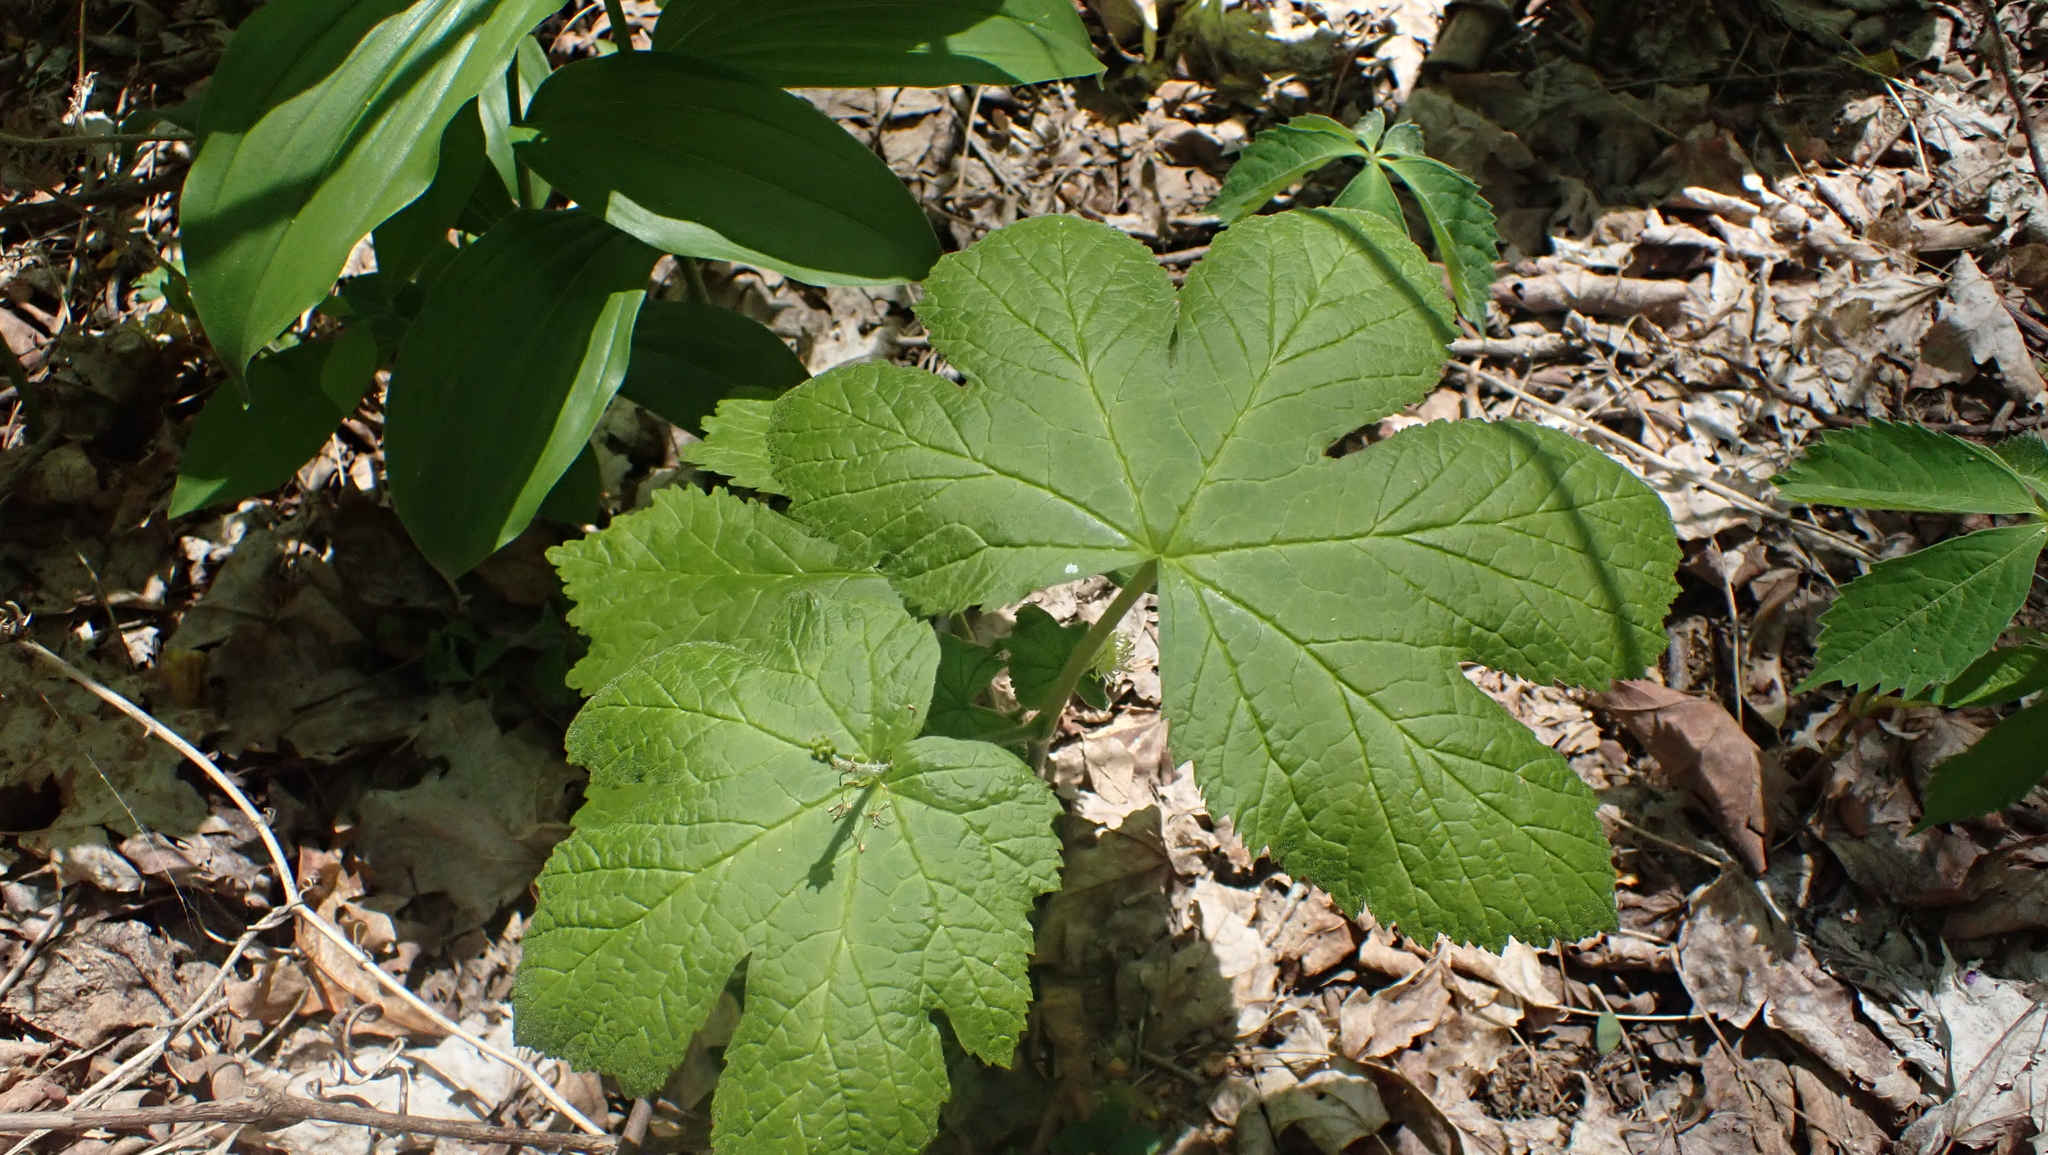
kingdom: Plantae
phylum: Tracheophyta
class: Magnoliopsida
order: Ranunculales
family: Ranunculaceae
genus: Hydrastis
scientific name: Hydrastis canadensis
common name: Goldenseal
